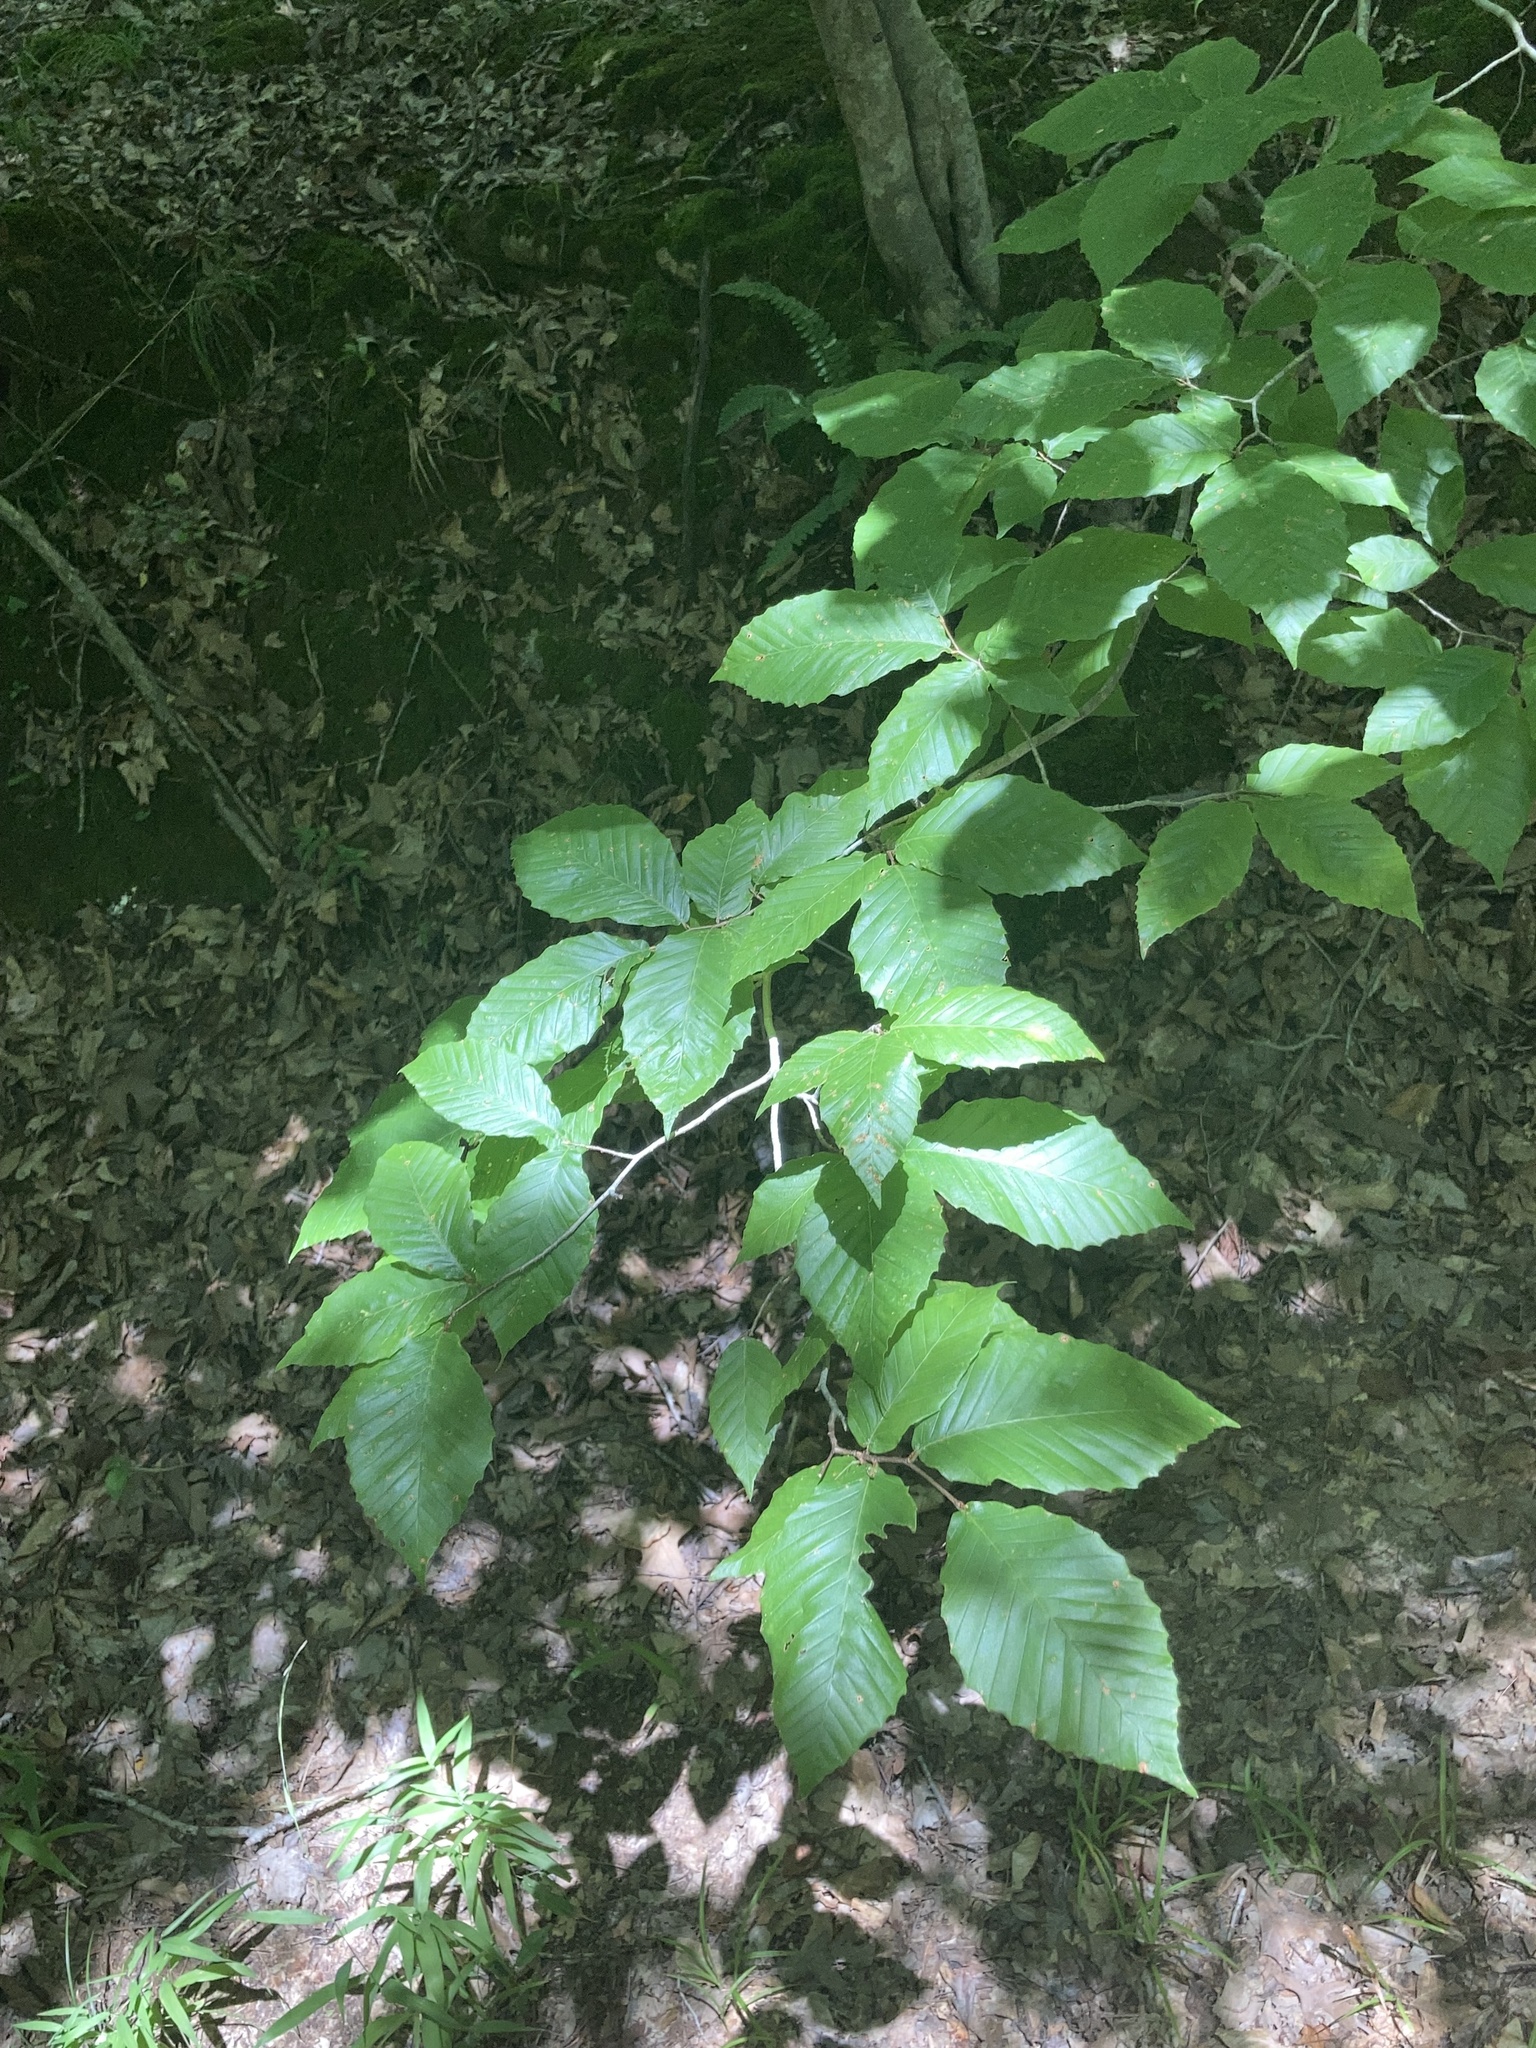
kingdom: Plantae
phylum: Tracheophyta
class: Magnoliopsida
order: Fagales
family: Fagaceae
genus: Fagus
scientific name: Fagus grandifolia
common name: American beech
